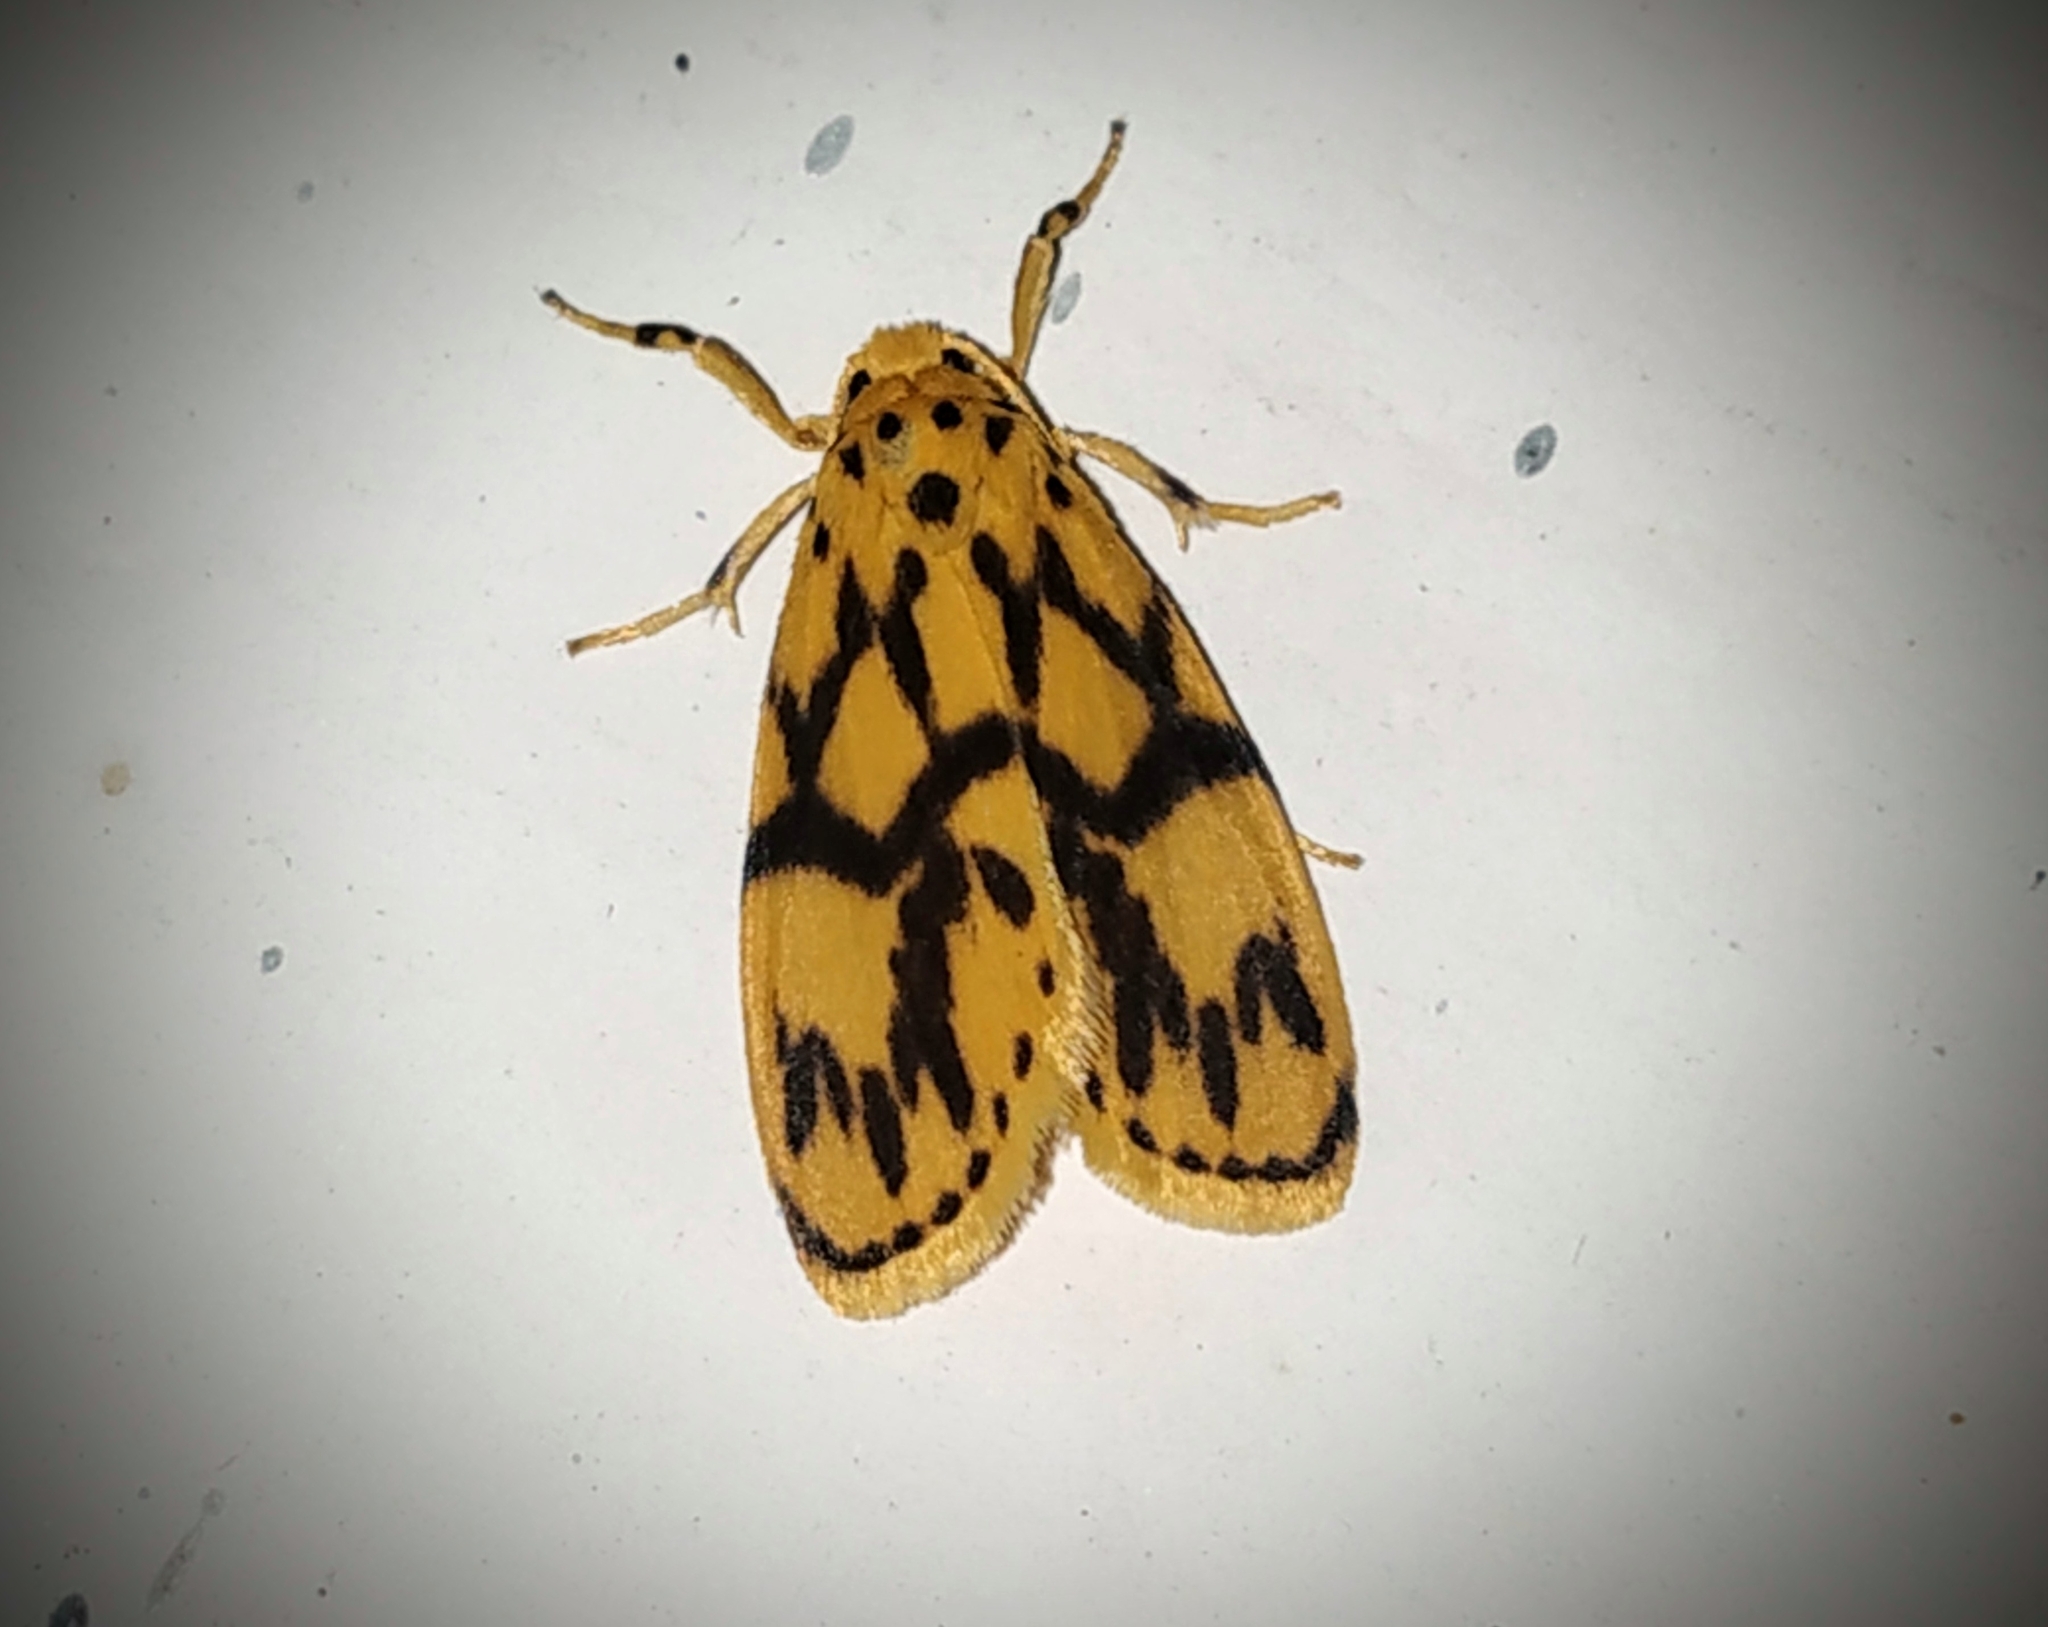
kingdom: Animalia
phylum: Arthropoda
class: Insecta
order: Lepidoptera
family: Erebidae
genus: Miltochrista
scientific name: Miltochrista terminospota
